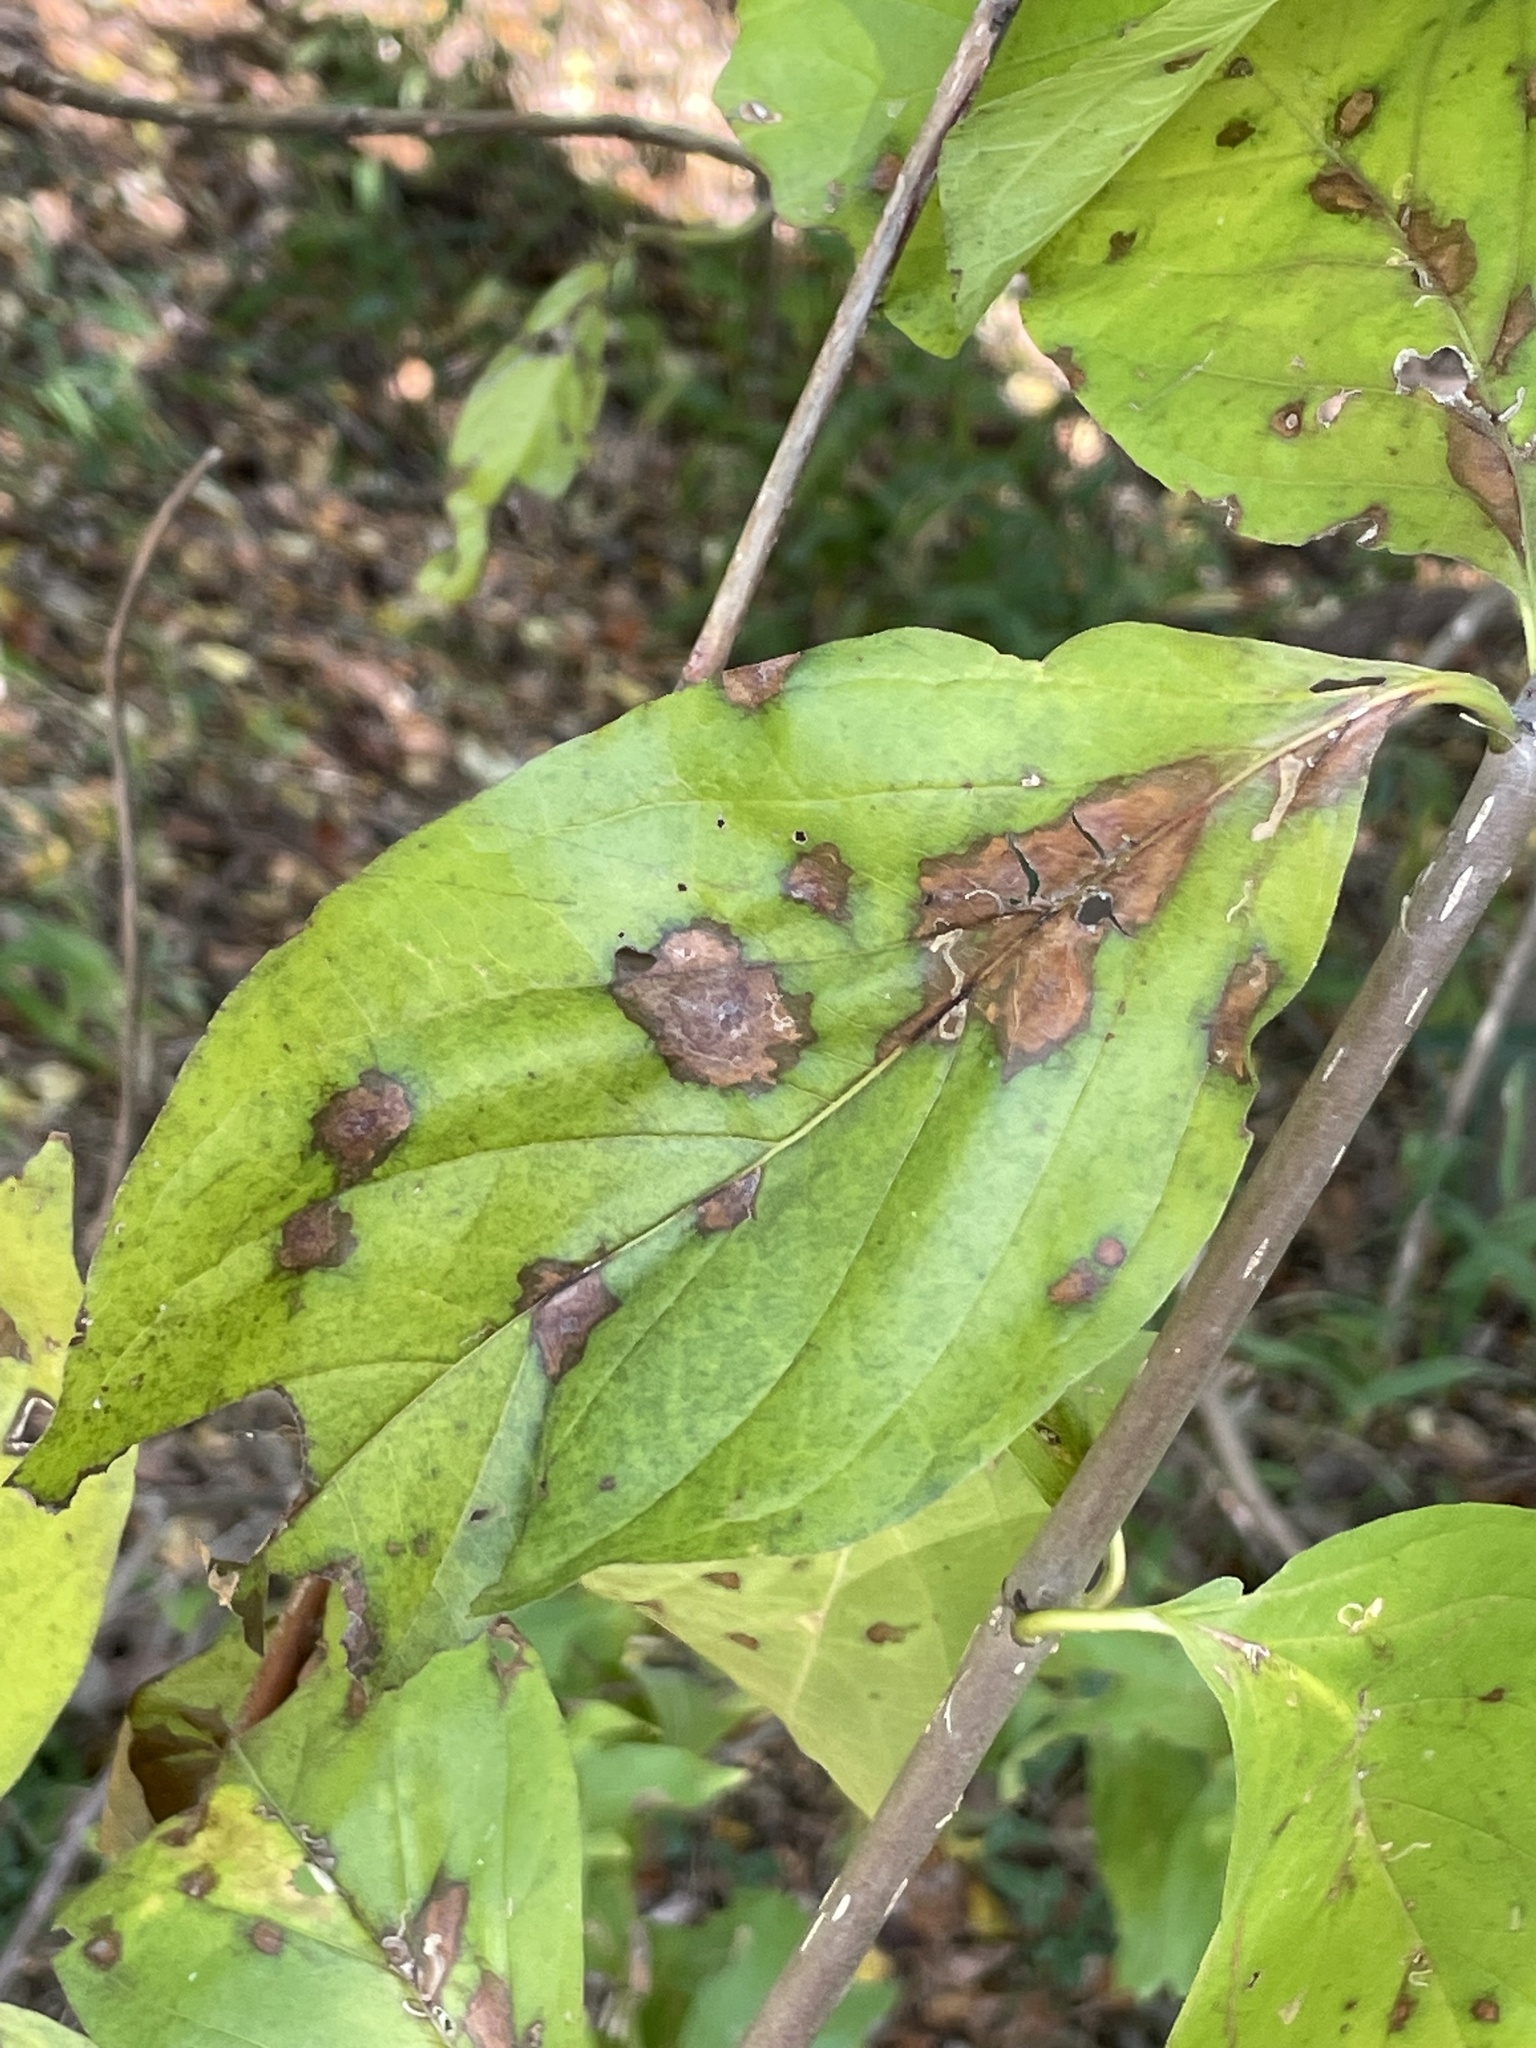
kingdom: Plantae
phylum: Tracheophyta
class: Magnoliopsida
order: Cornales
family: Cornaceae
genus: Cornus
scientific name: Cornus drummondii
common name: Rough-leaf dogwood
